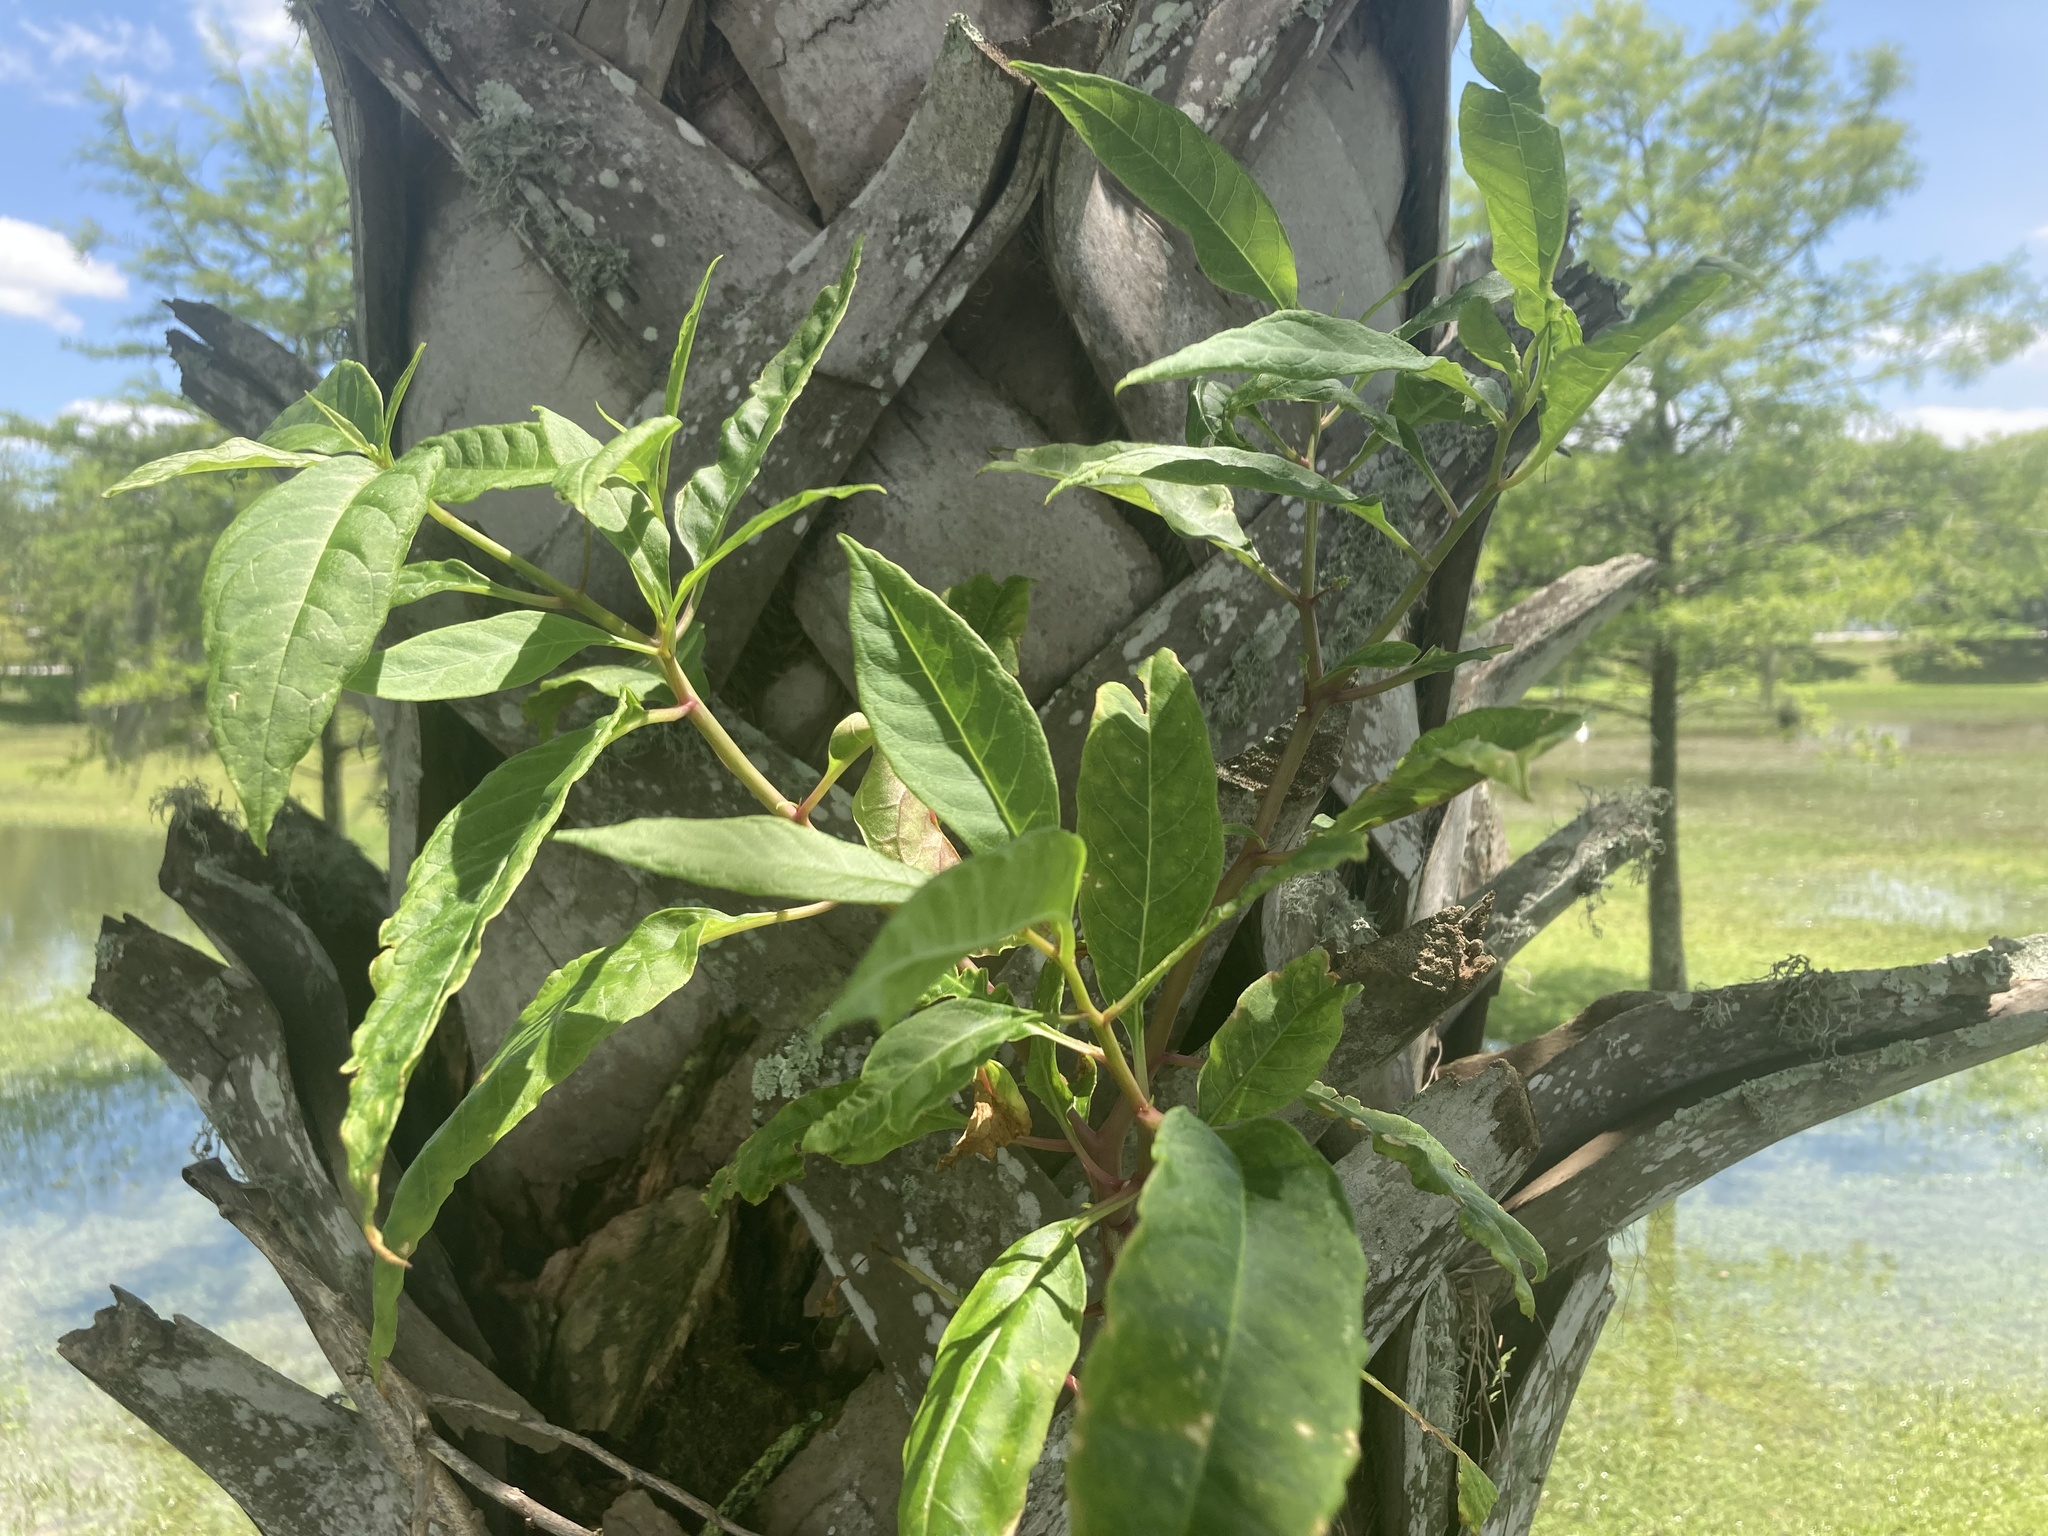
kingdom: Plantae
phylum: Tracheophyta
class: Magnoliopsida
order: Caryophyllales
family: Phytolaccaceae
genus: Phytolacca
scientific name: Phytolacca americana
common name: American pokeweed
